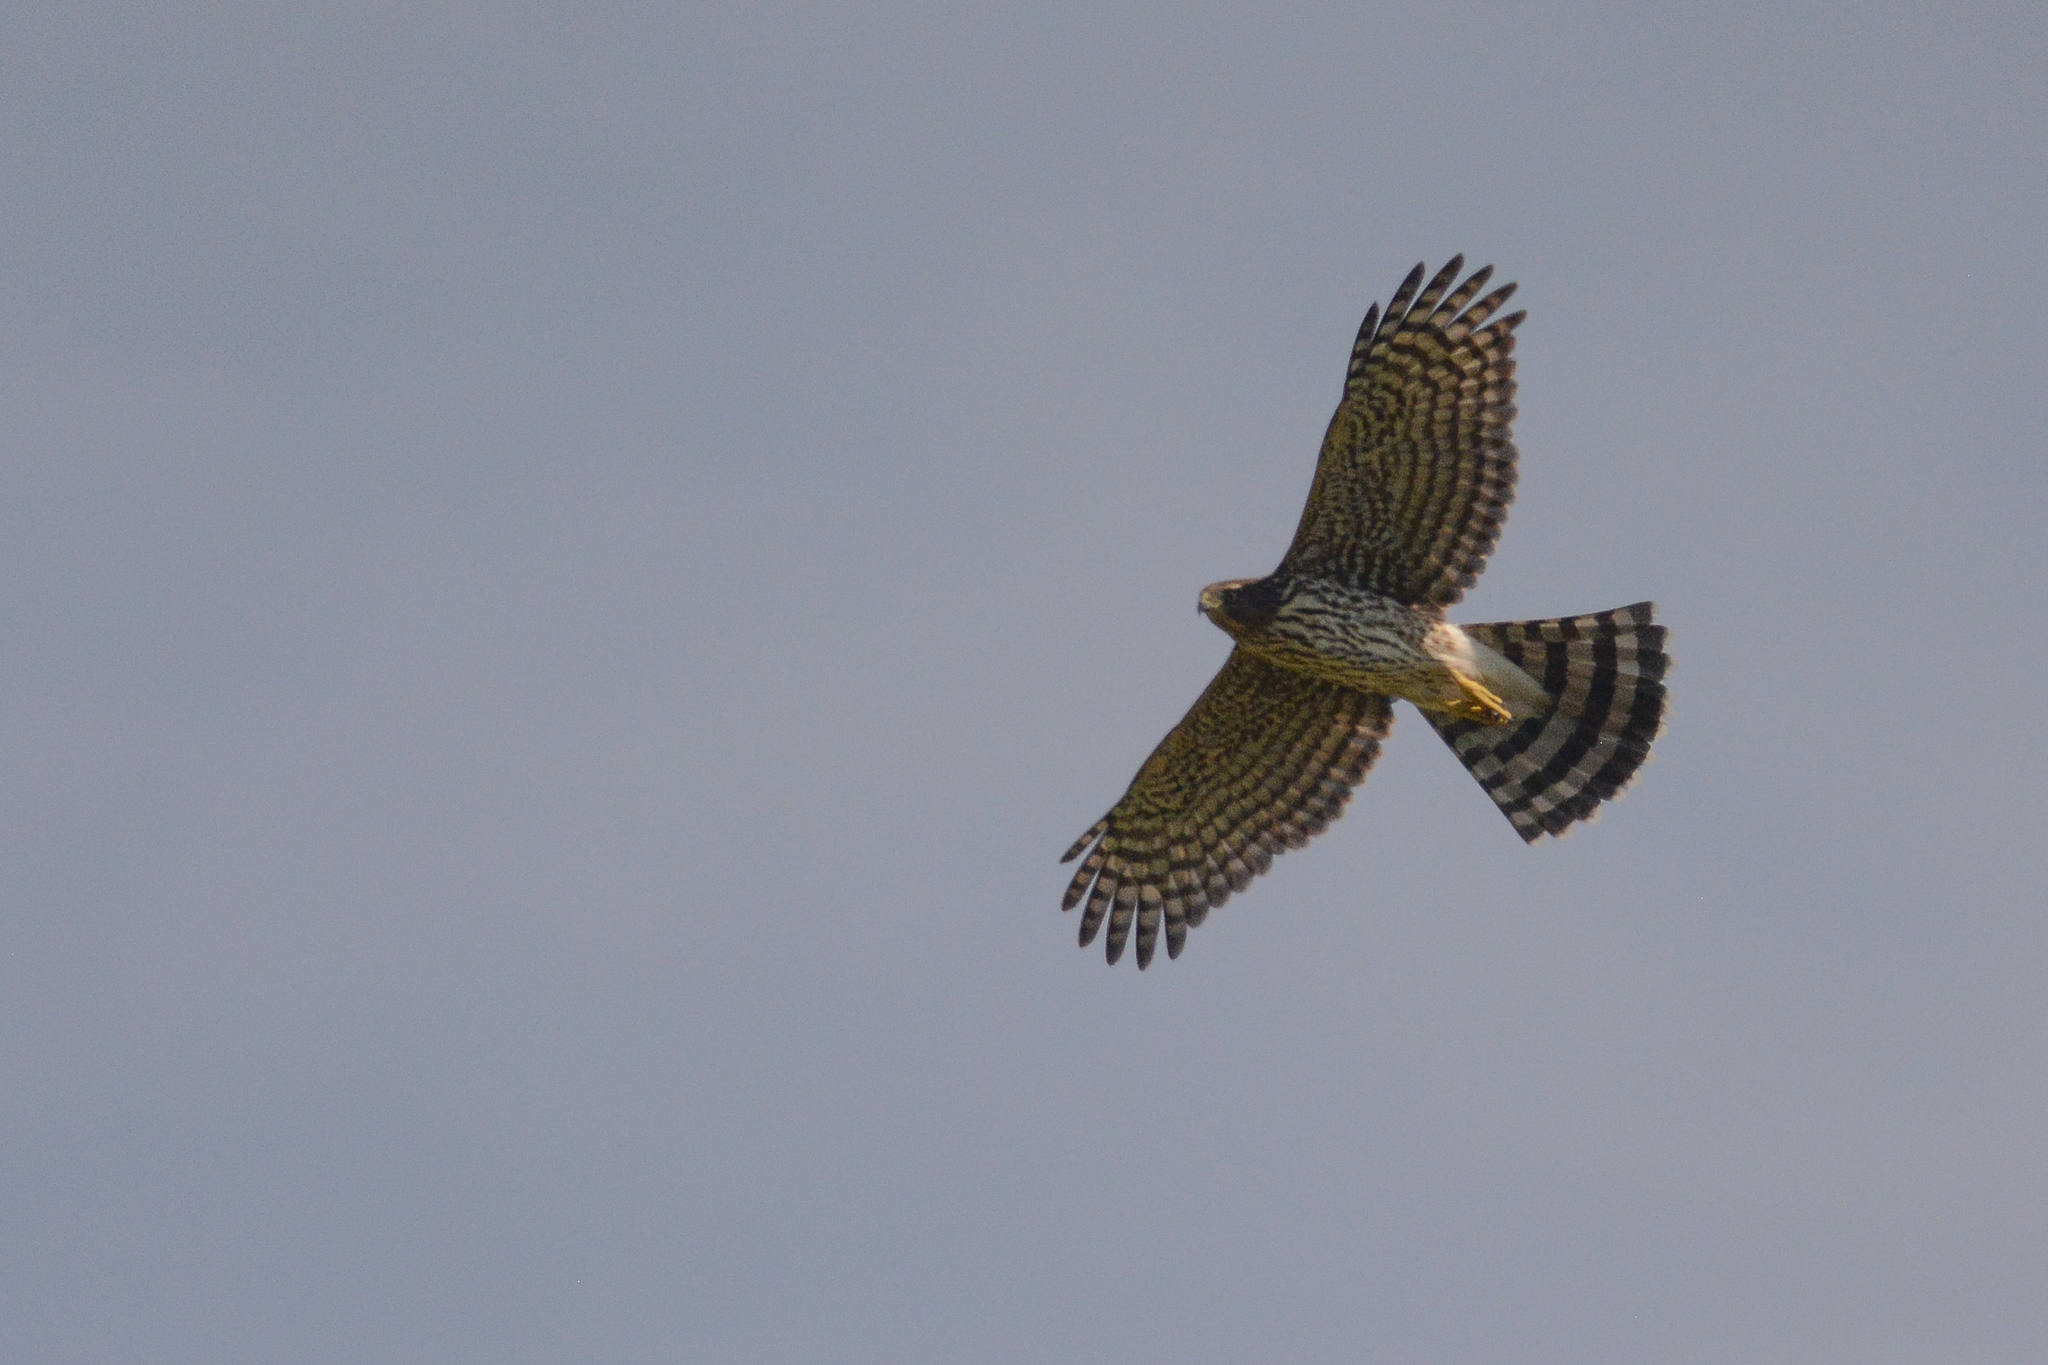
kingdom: Animalia
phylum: Chordata
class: Aves
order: Accipitriformes
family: Accipitridae
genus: Accipiter
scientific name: Accipiter cooperii
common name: Cooper's hawk
